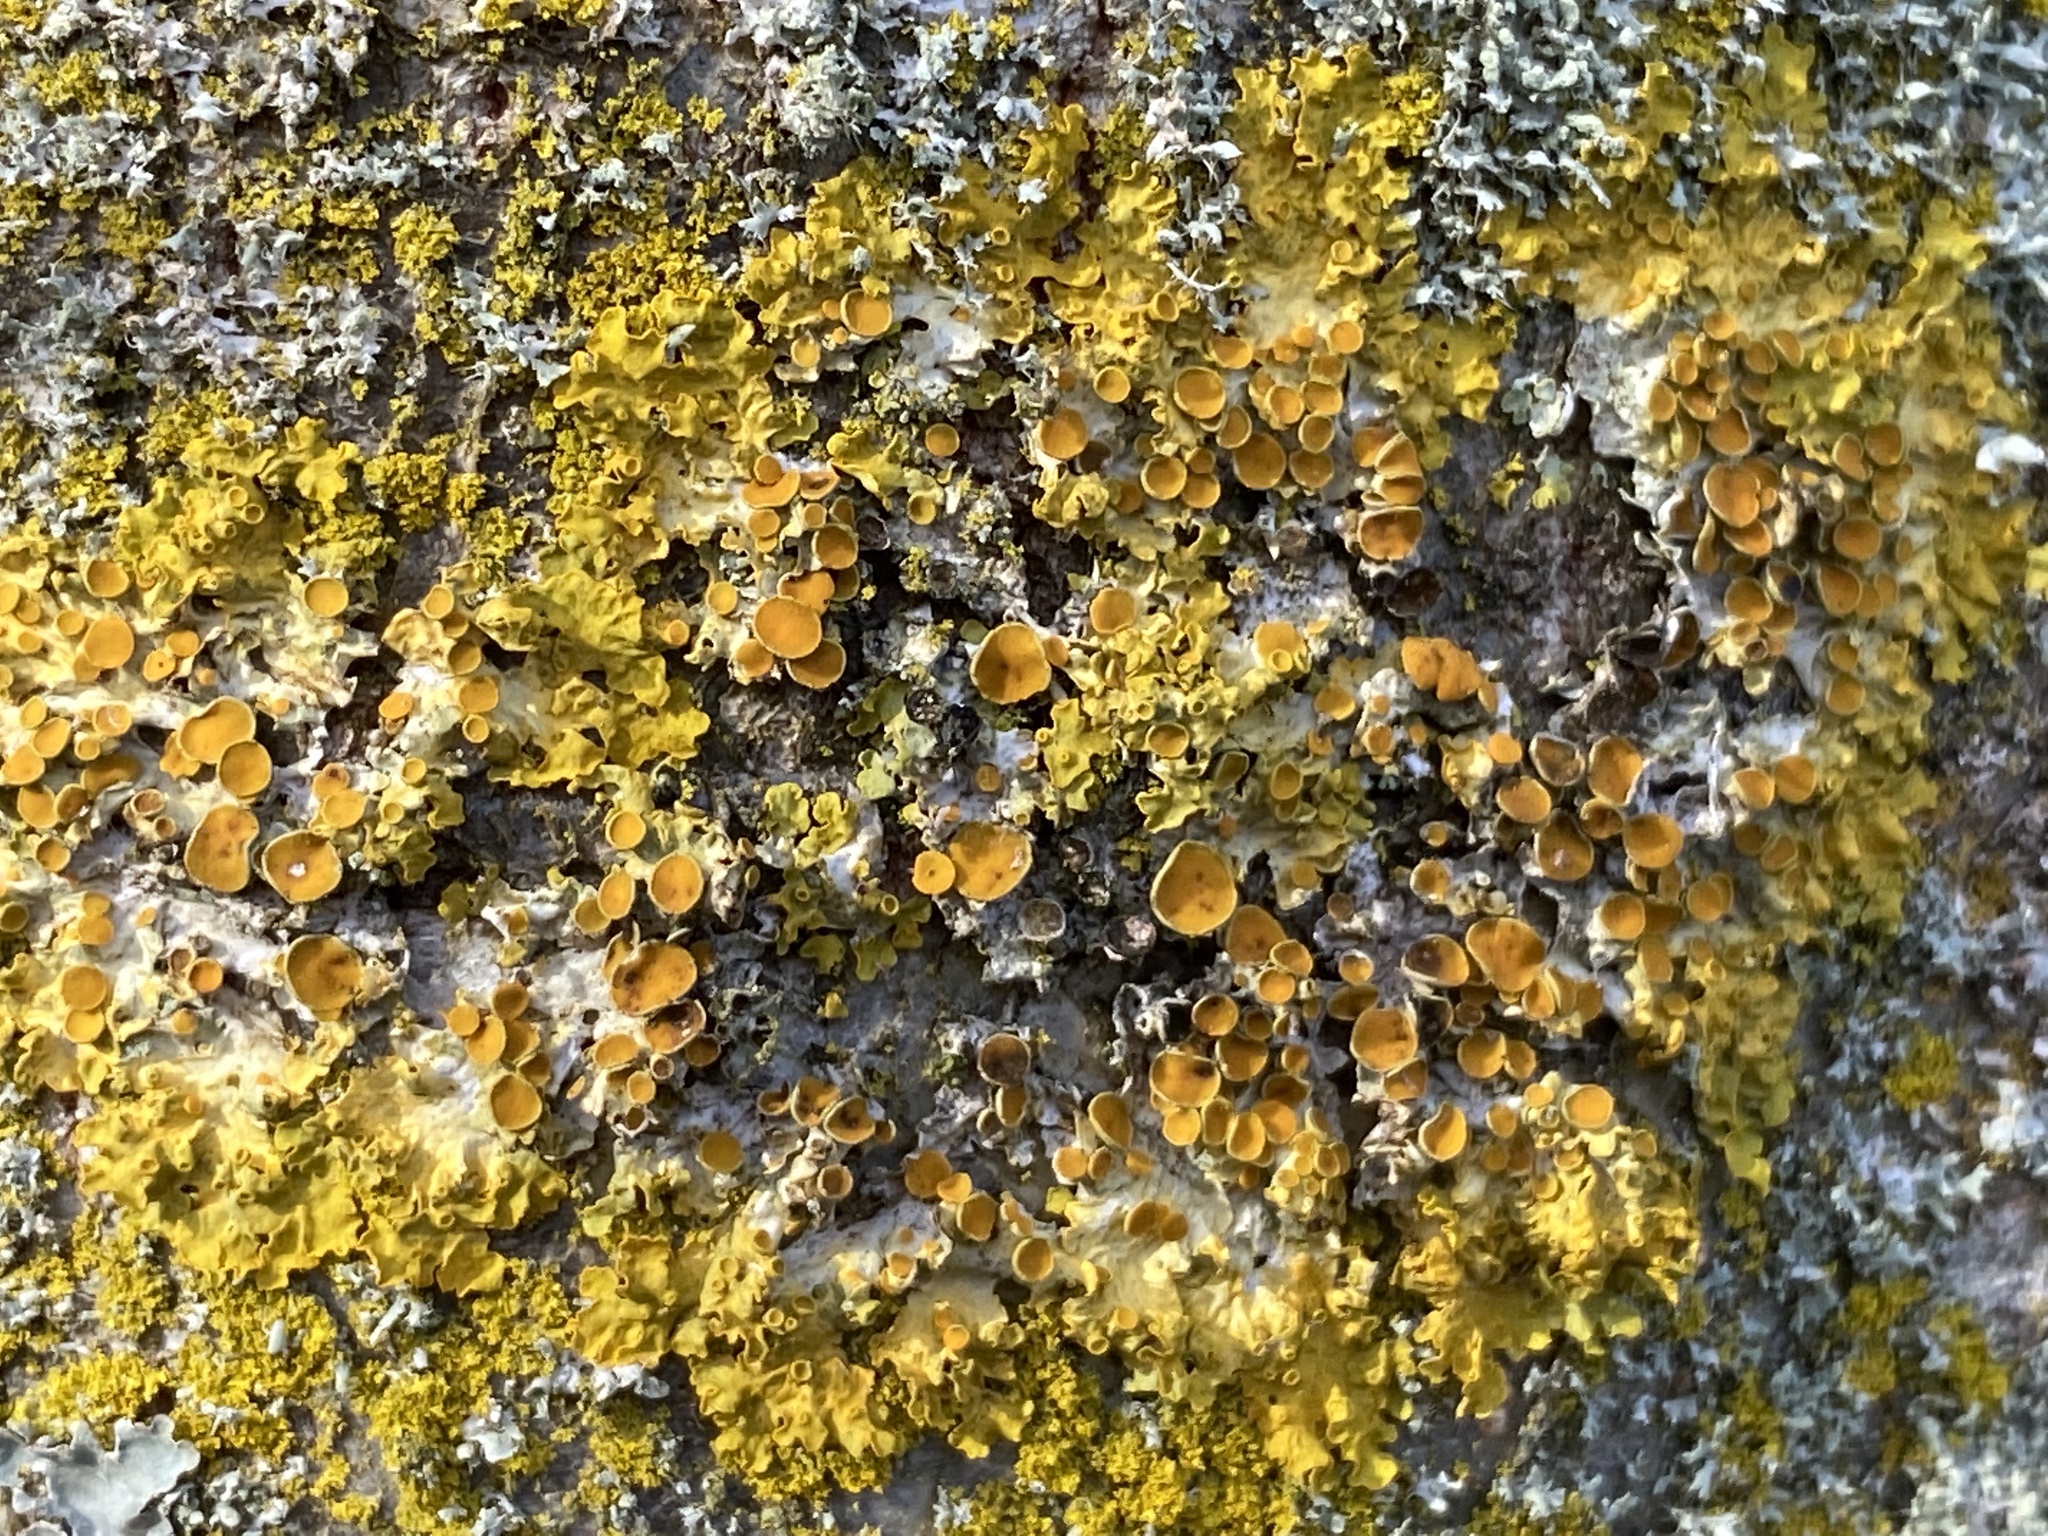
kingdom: Fungi
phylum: Ascomycota
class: Lecanoromycetes
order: Teloschistales
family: Teloschistaceae
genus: Xanthoria
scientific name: Xanthoria parietina
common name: Common orange lichen
